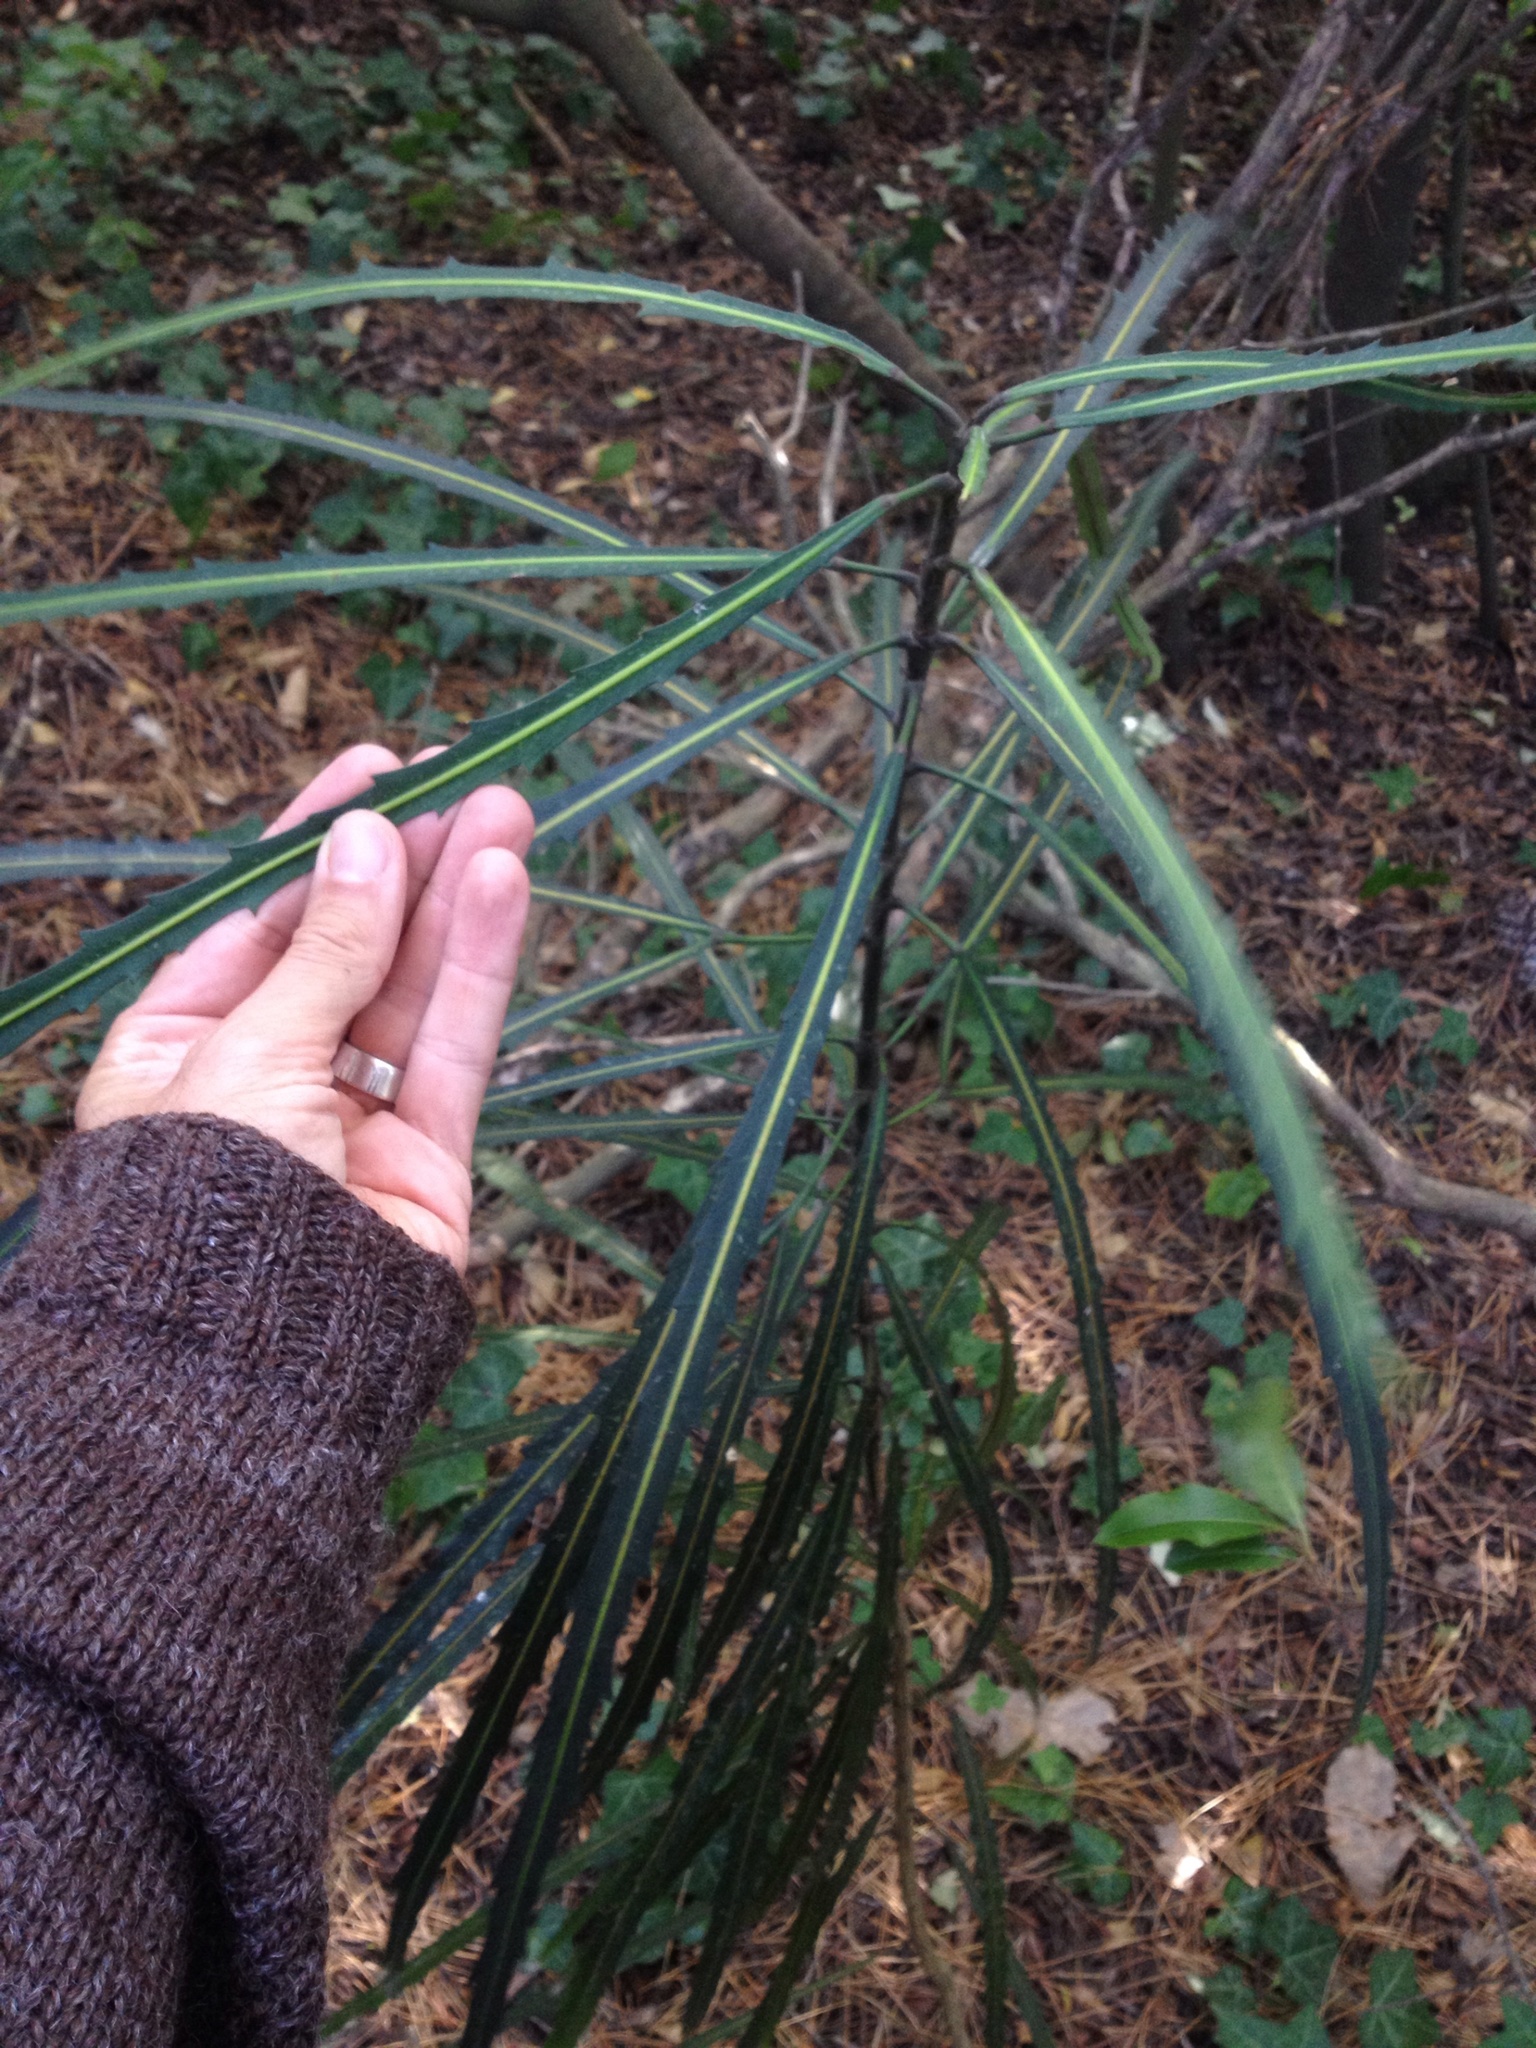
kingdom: Plantae
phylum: Tracheophyta
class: Magnoliopsida
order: Apiales
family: Araliaceae
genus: Pseudopanax
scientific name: Pseudopanax
